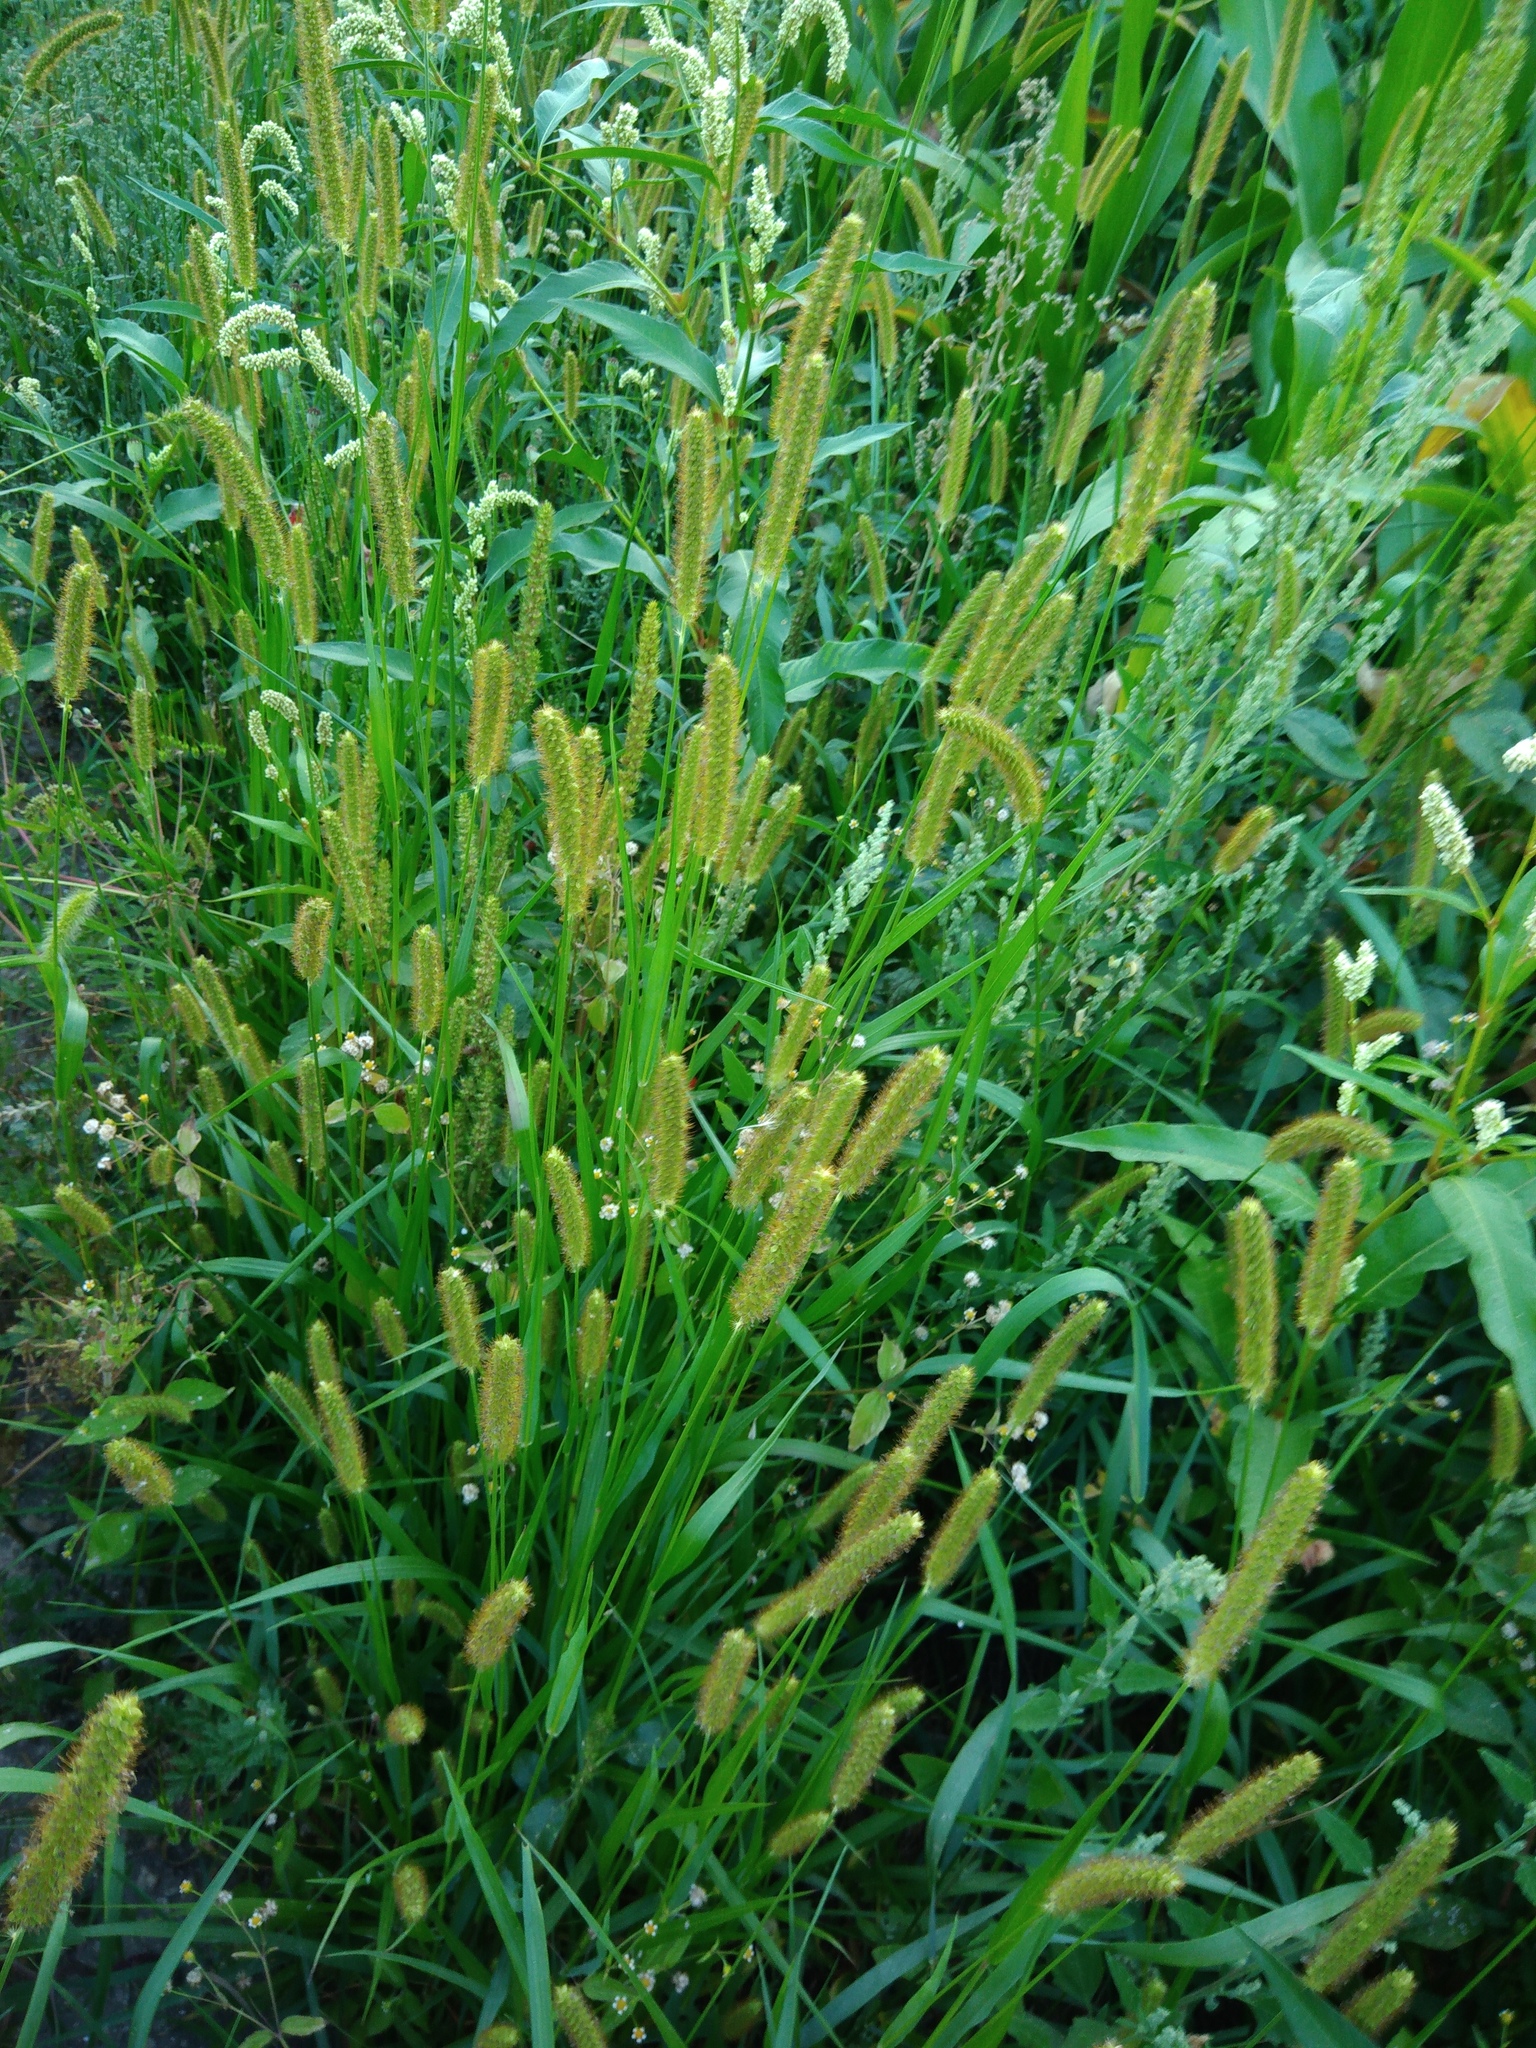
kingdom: Plantae
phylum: Tracheophyta
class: Liliopsida
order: Poales
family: Poaceae
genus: Setaria
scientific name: Setaria pumila
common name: Yellow bristle-grass
